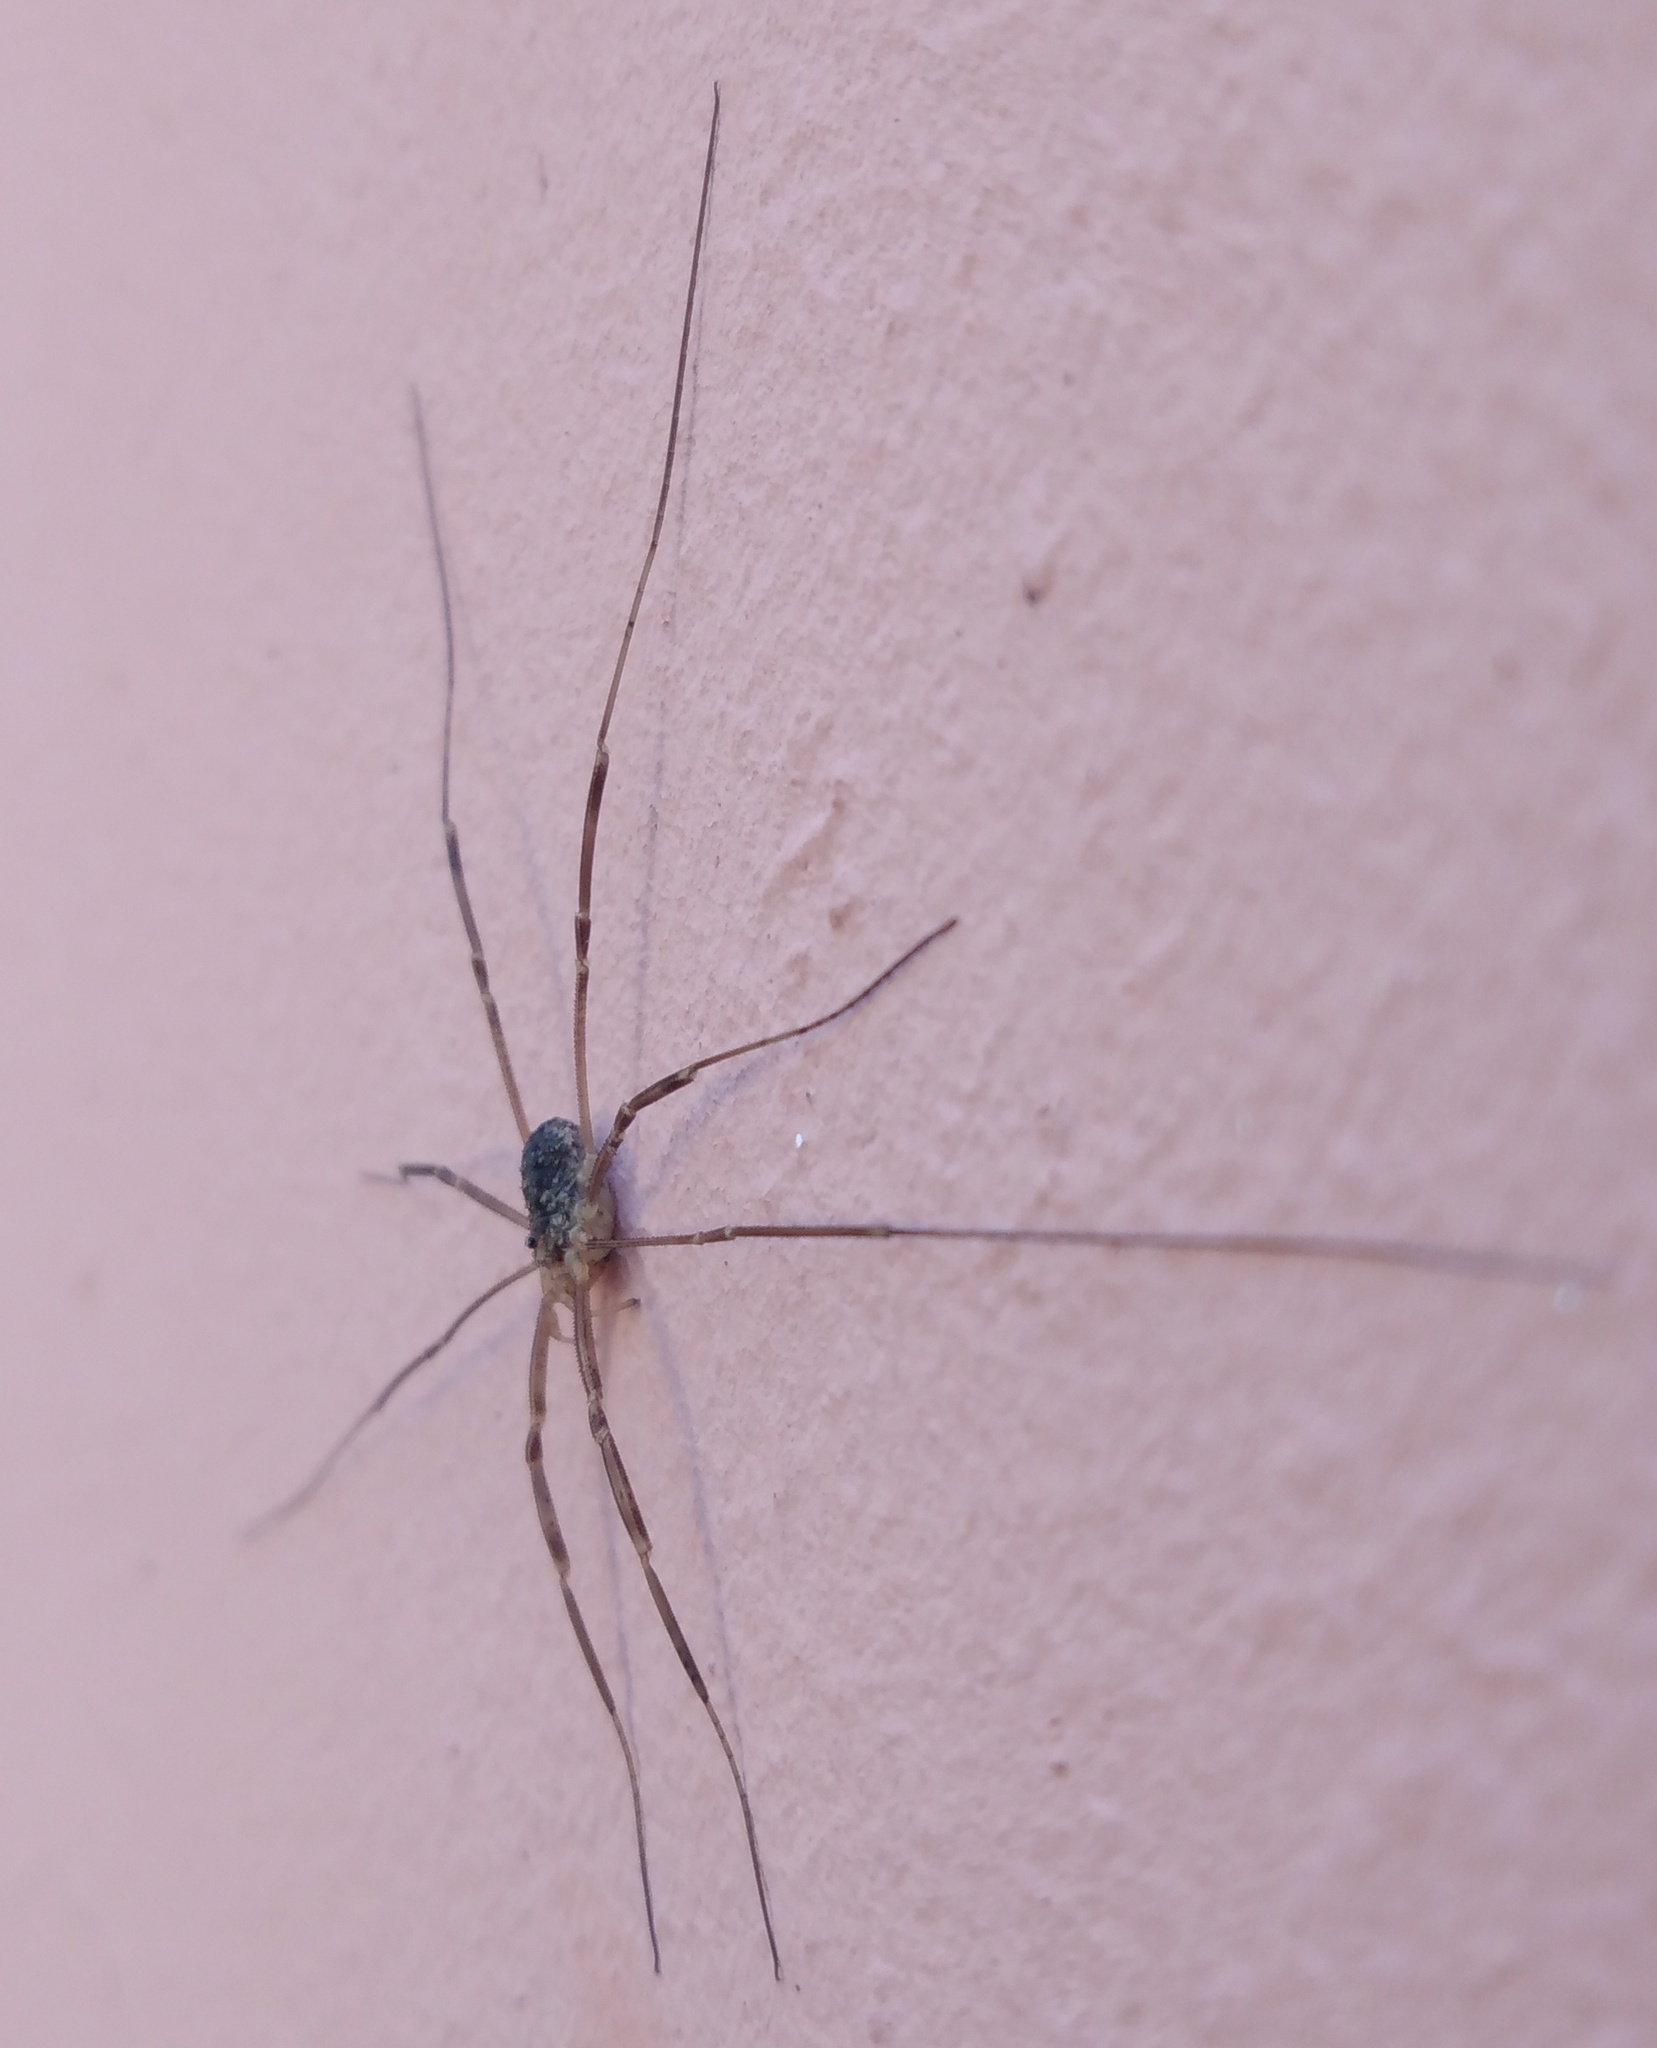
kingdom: Animalia
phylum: Arthropoda
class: Arachnida
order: Opiliones
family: Phalangiidae
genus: Opilio
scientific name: Opilio saxatilis
